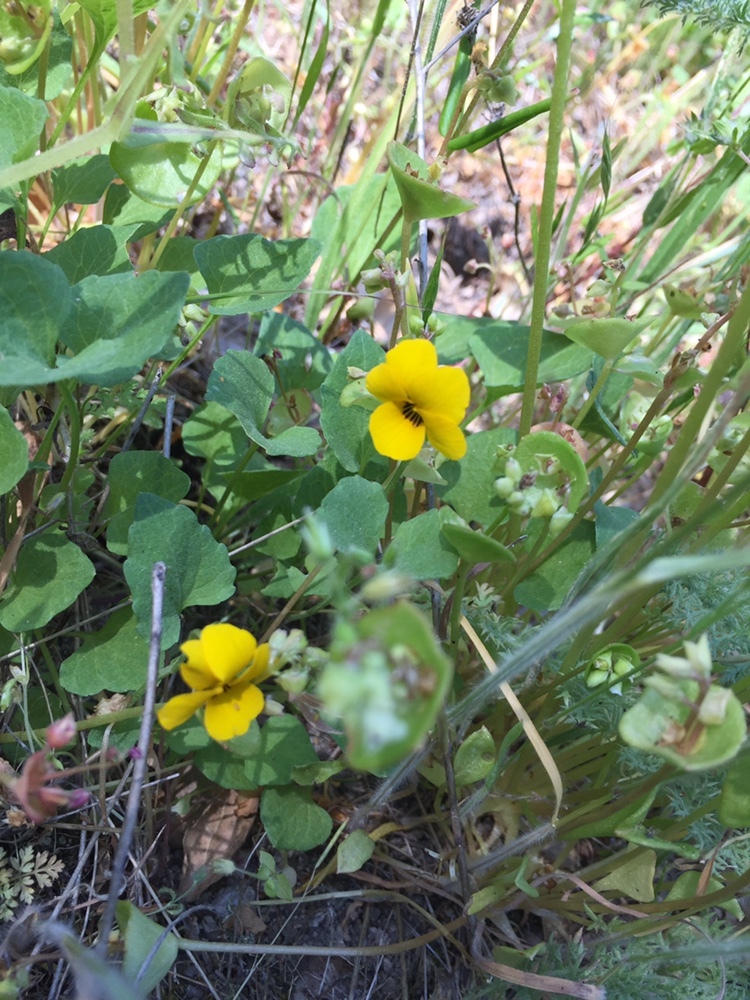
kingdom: Plantae
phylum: Tracheophyta
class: Magnoliopsida
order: Malpighiales
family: Violaceae
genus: Viola
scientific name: Viola pedunculata
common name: California golden violet
